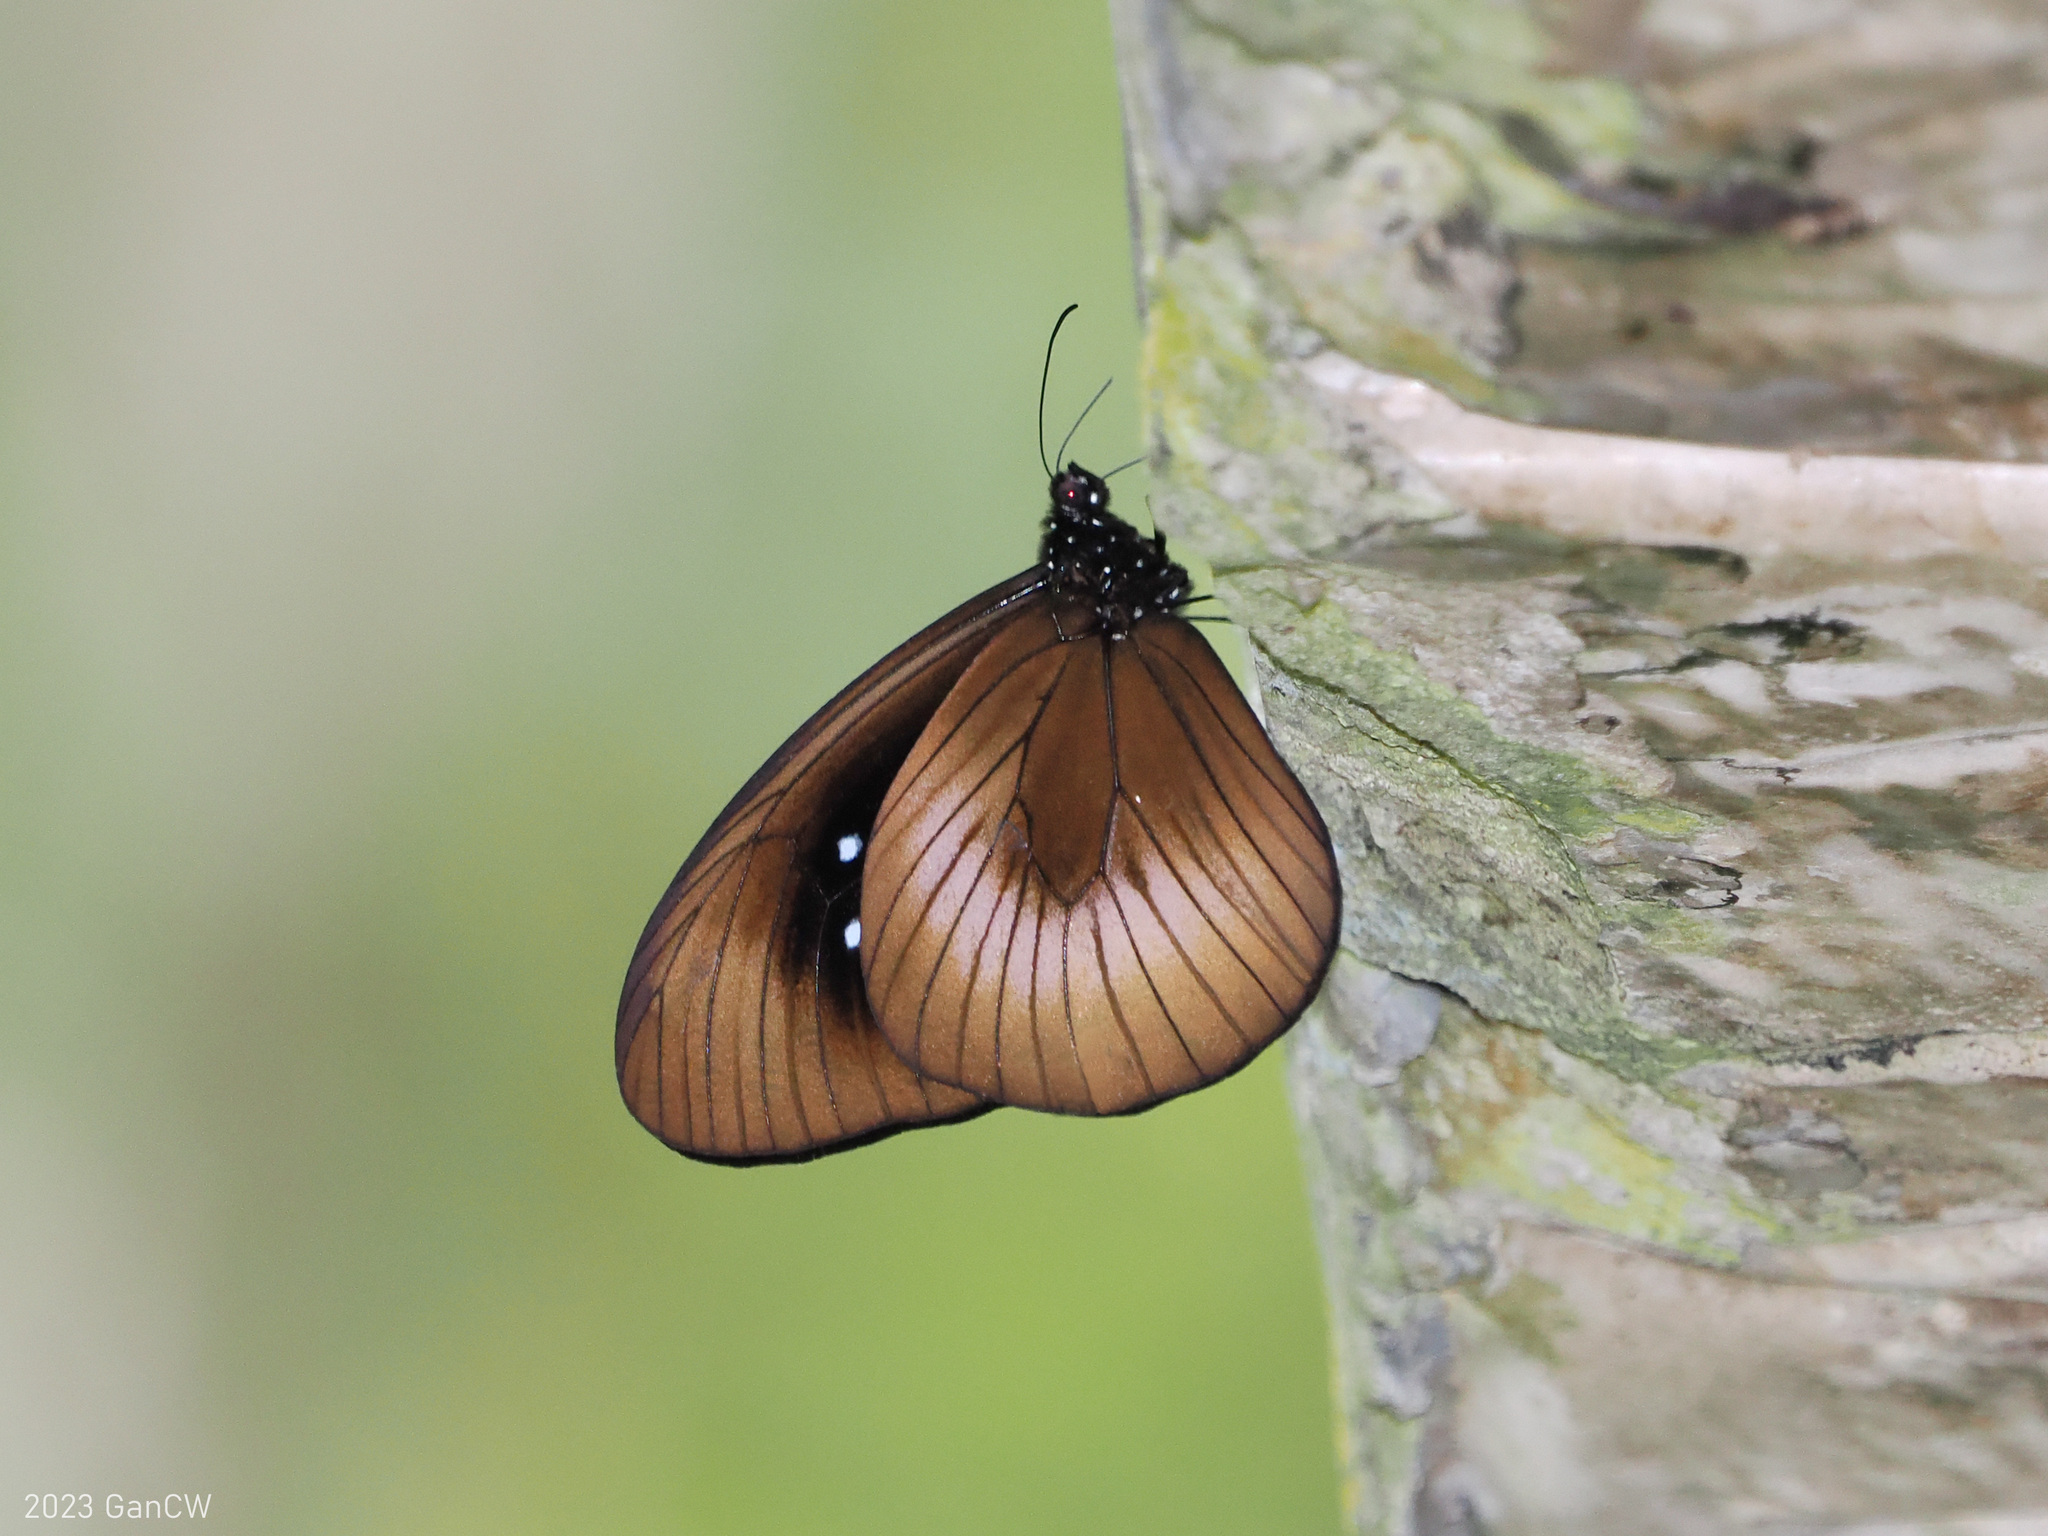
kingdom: Animalia
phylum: Arthropoda
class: Insecta
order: Lepidoptera
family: Nymphalidae
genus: Euploea
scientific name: Euploea magou
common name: Magou
